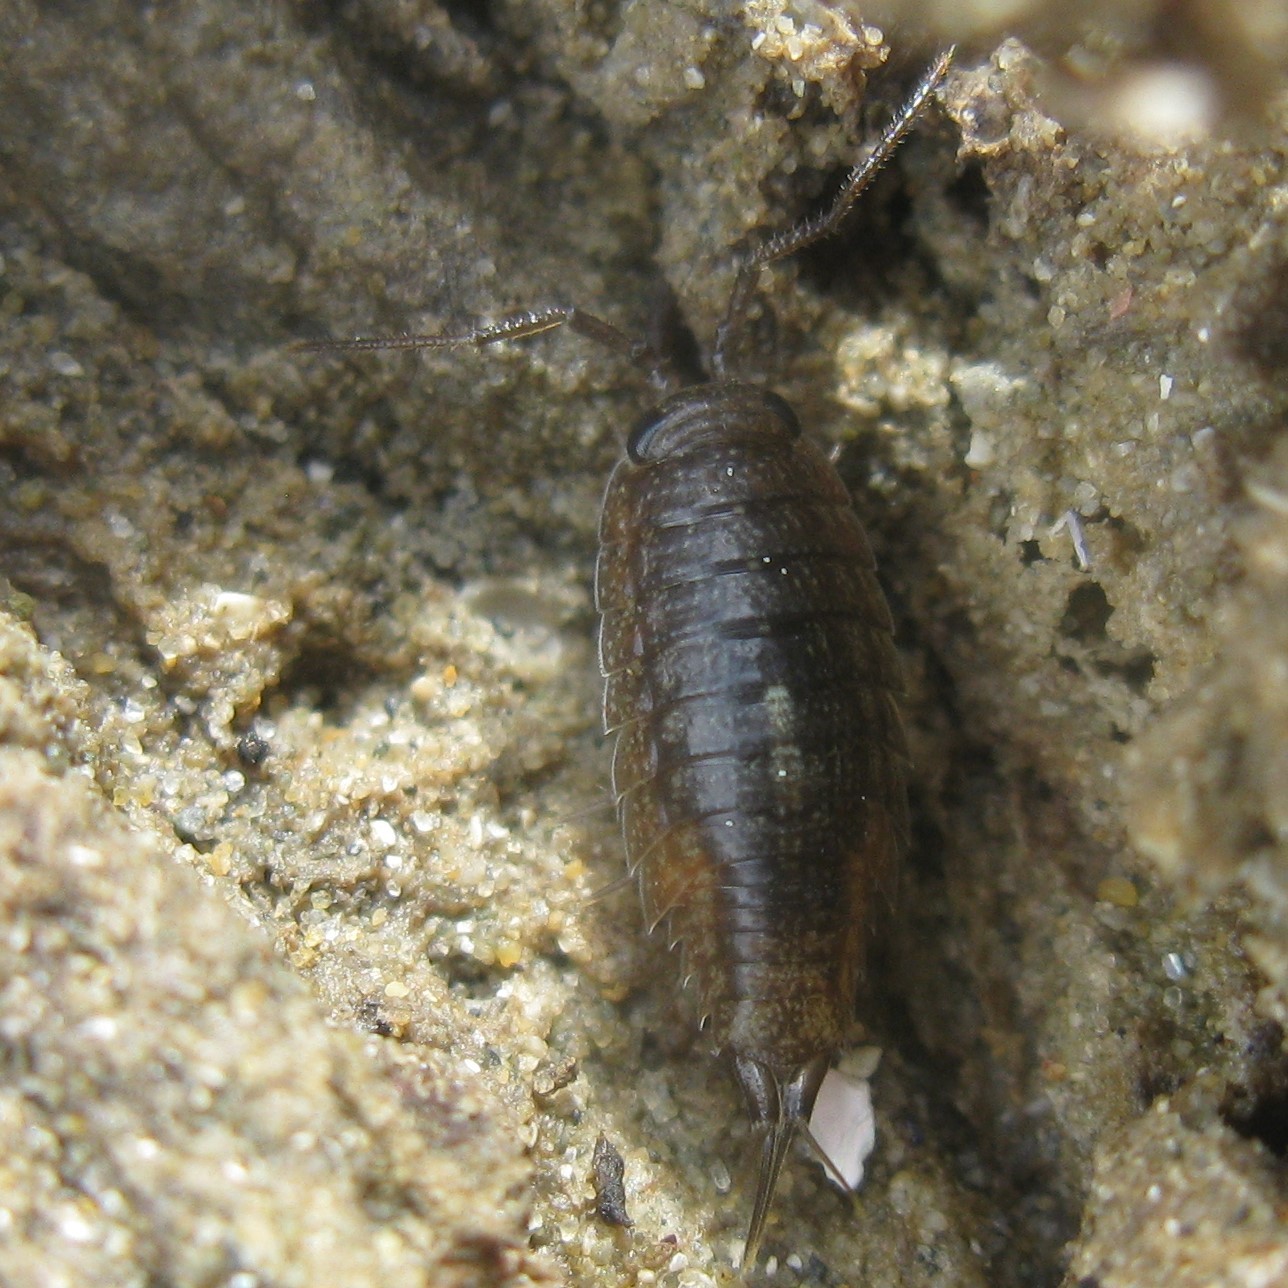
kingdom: Animalia
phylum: Arthropoda
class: Malacostraca
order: Isopoda
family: Ligiidae
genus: Ligia
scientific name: Ligia novizealandiae
